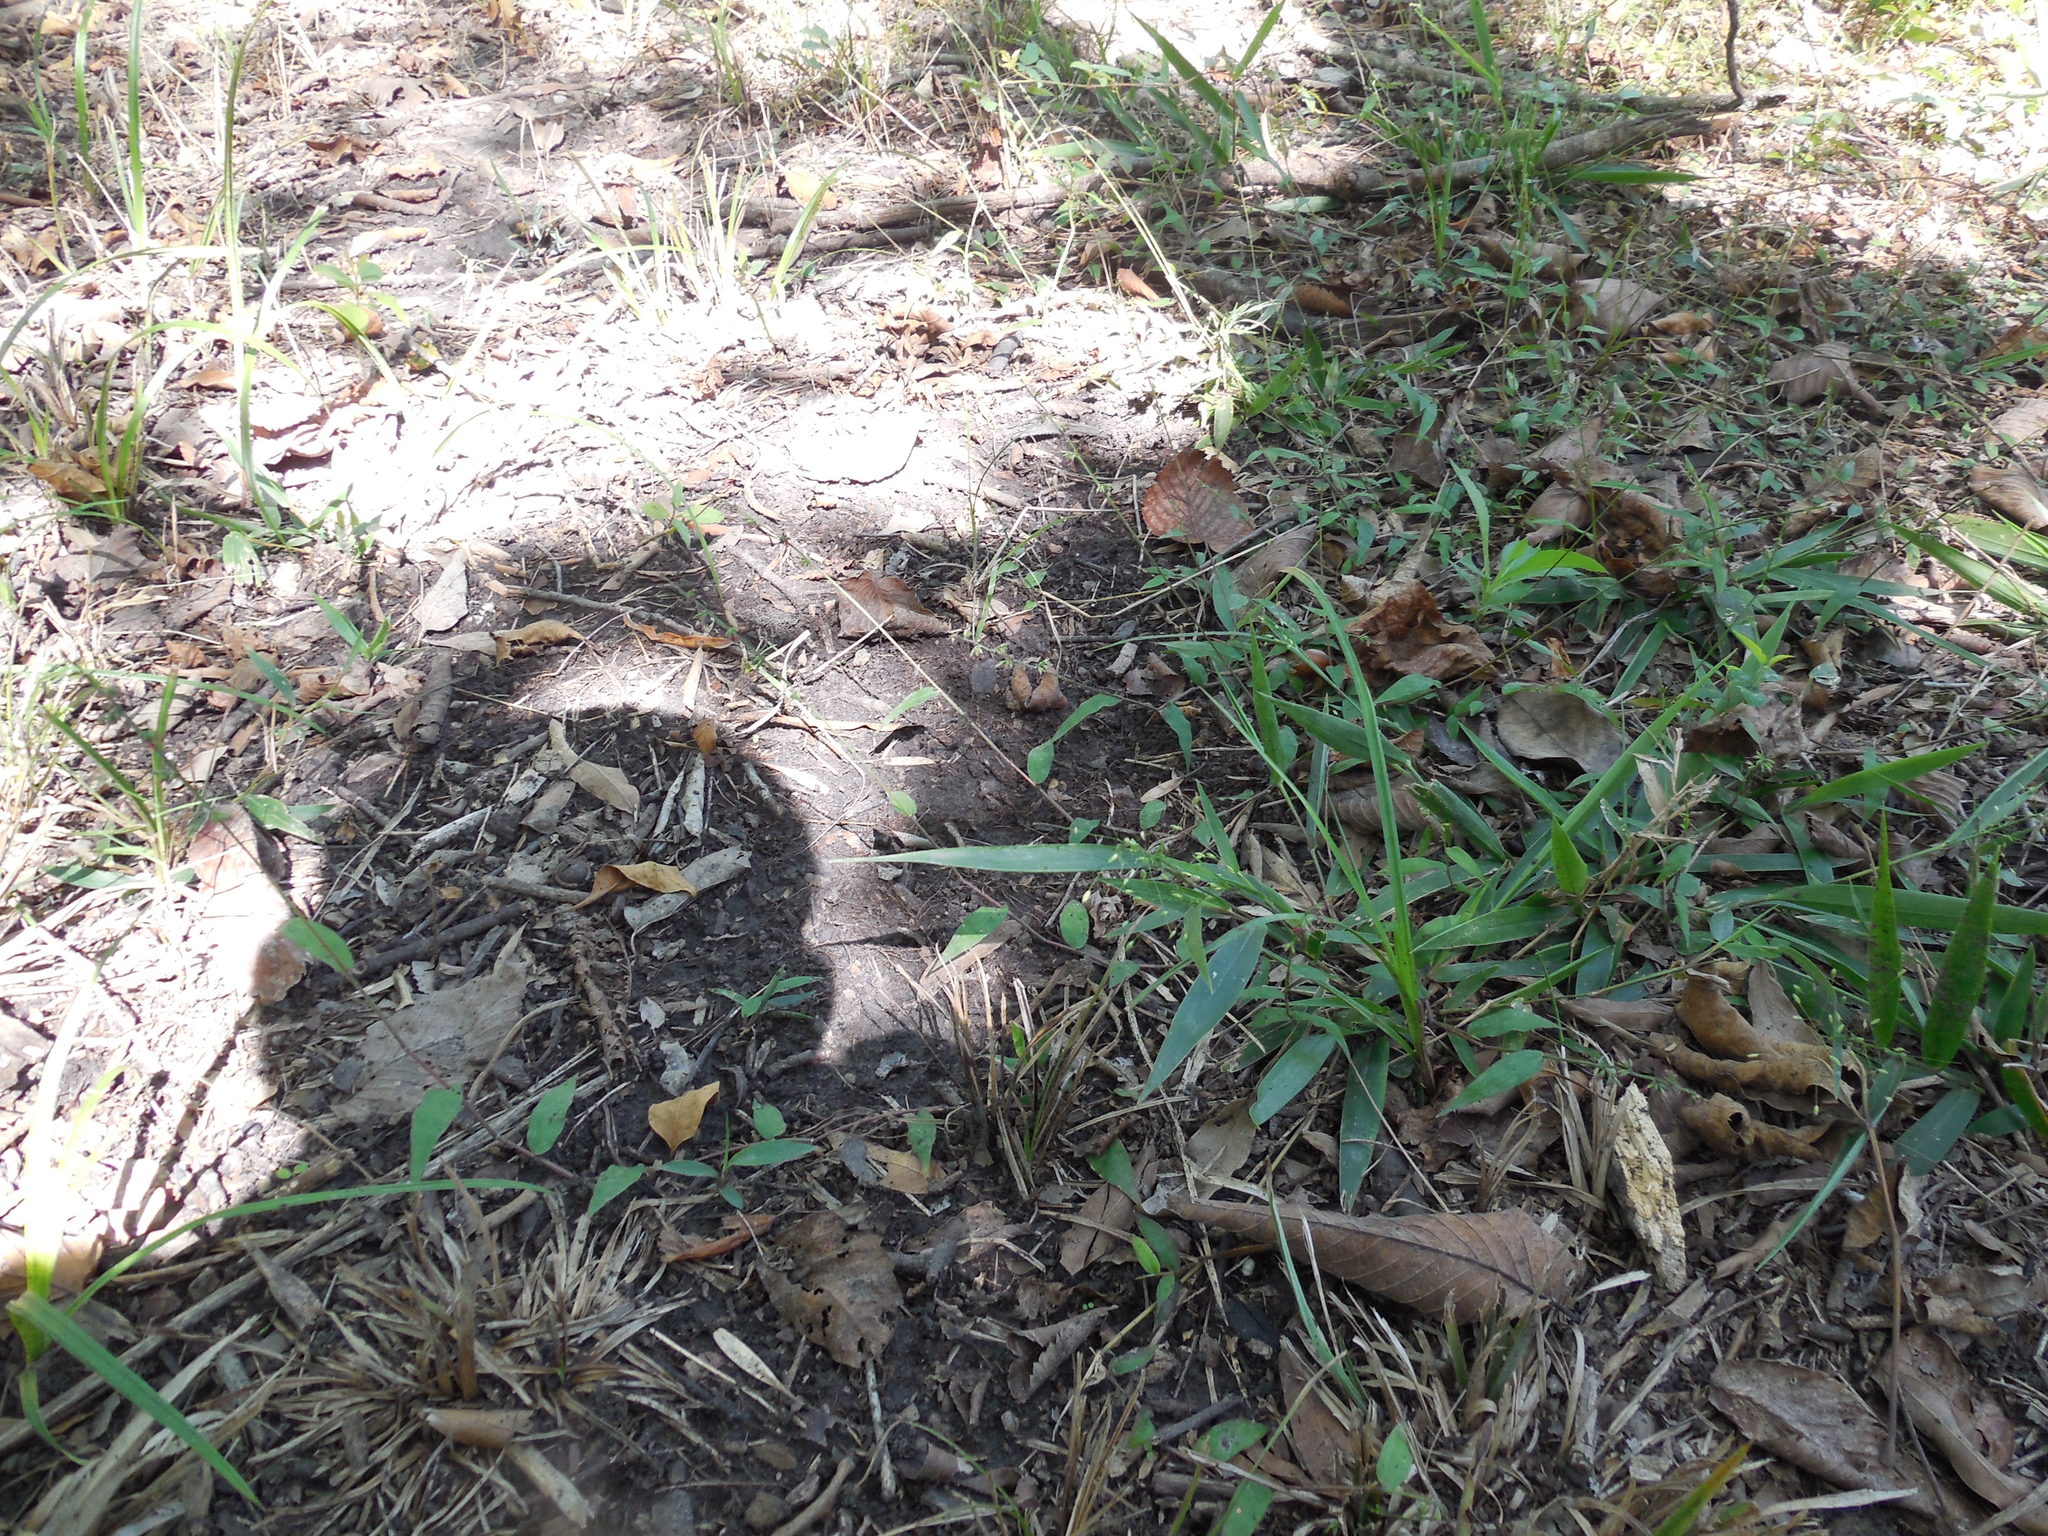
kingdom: Plantae
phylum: Tracheophyta
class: Liliopsida
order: Poales
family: Poaceae
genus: Oplismenus
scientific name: Oplismenus hirtellus
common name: Basketgrass
